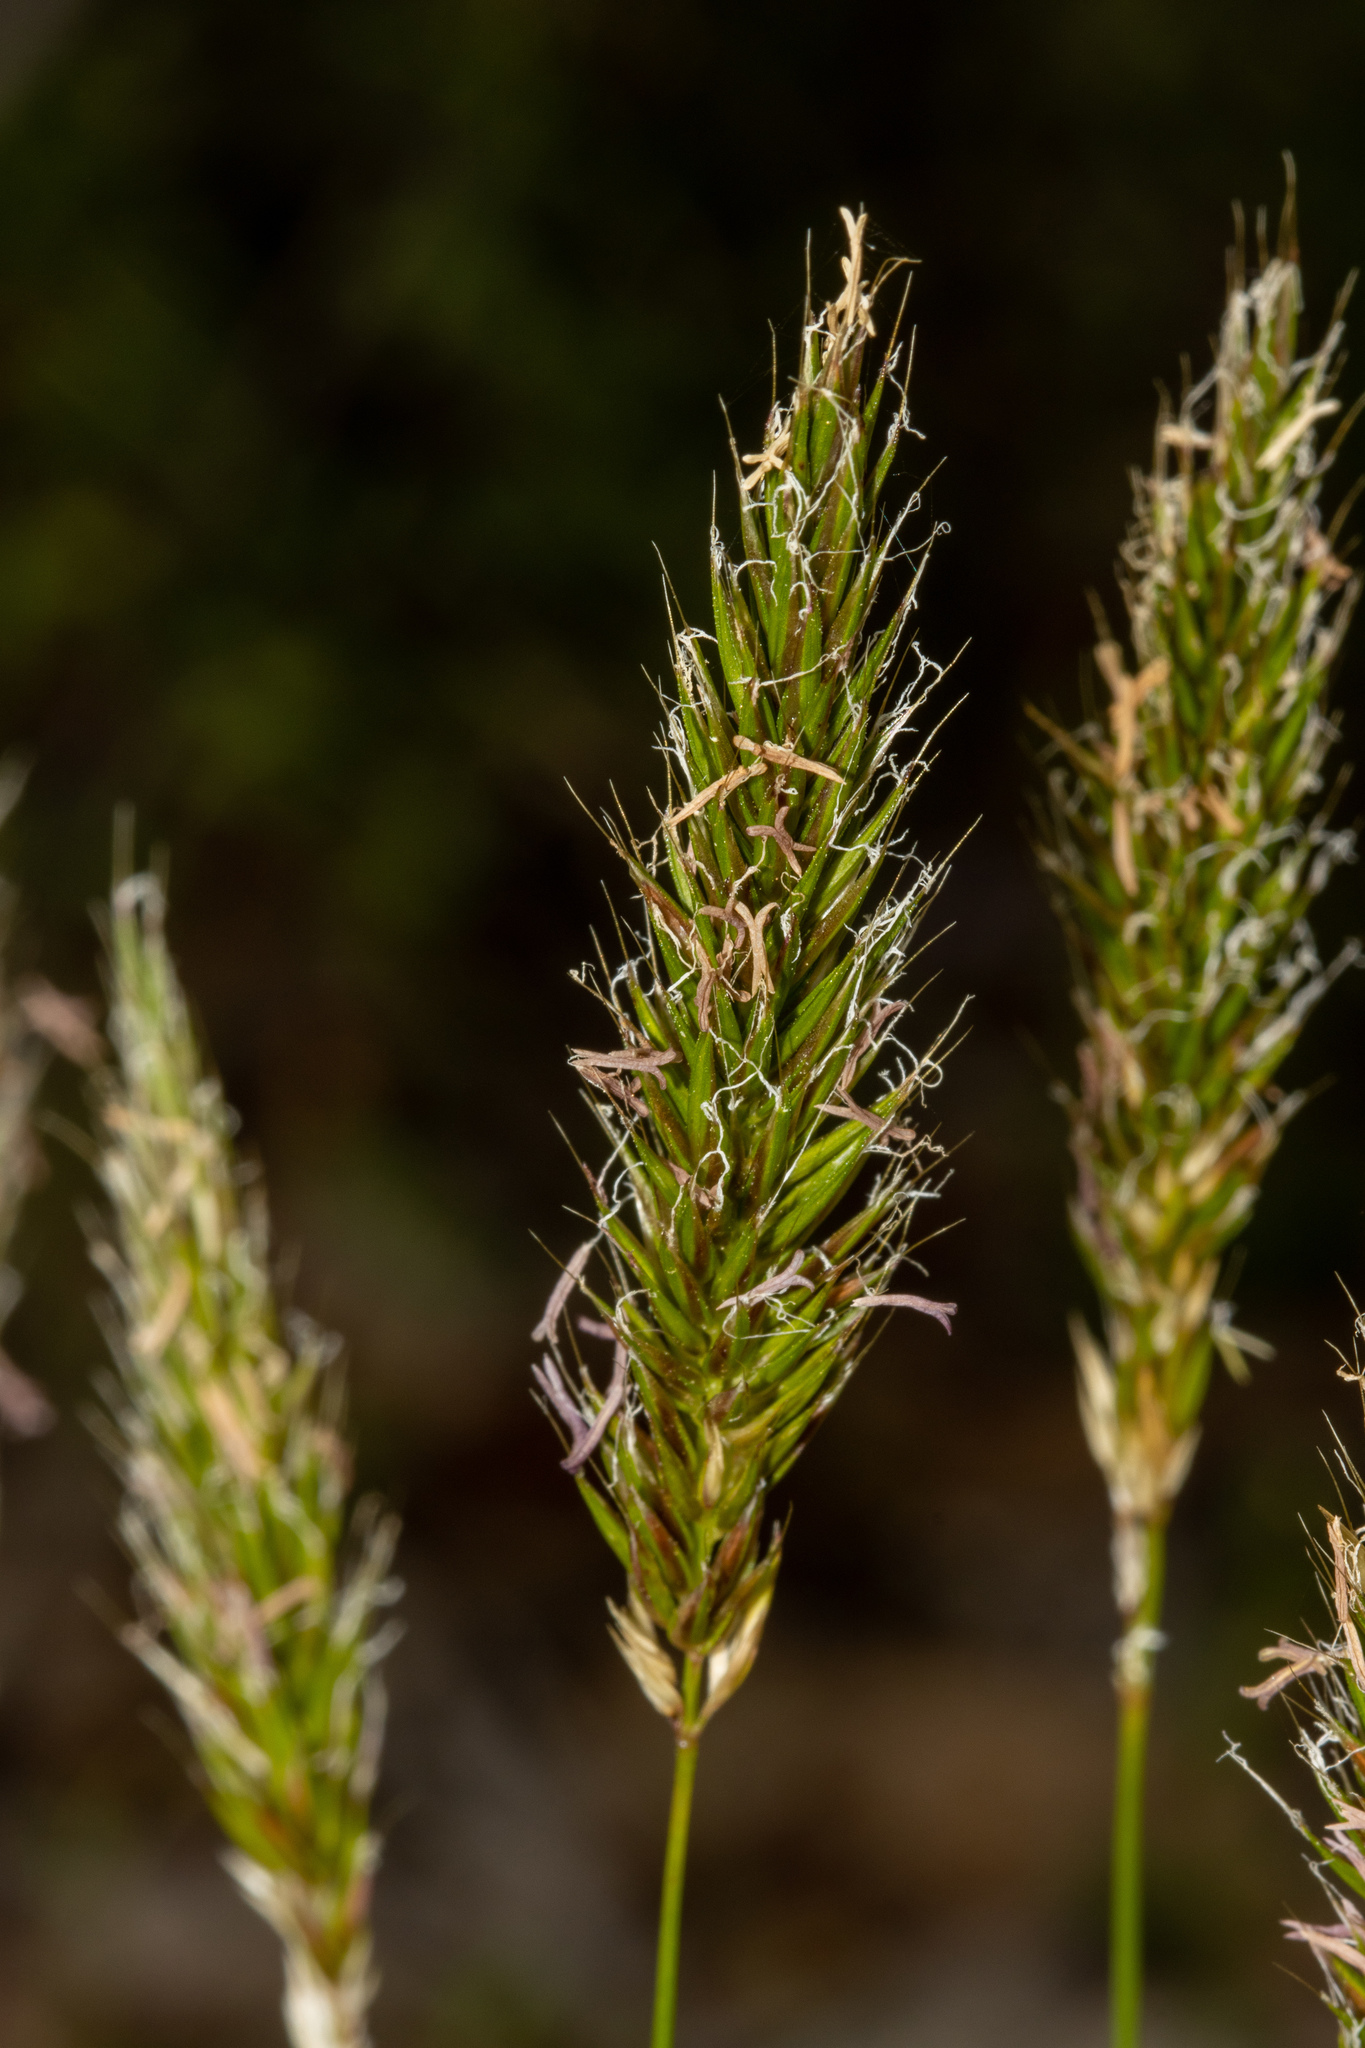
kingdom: Plantae
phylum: Tracheophyta
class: Liliopsida
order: Poales
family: Poaceae
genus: Anthoxanthum
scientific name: Anthoxanthum odoratum
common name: Sweet vernalgrass
